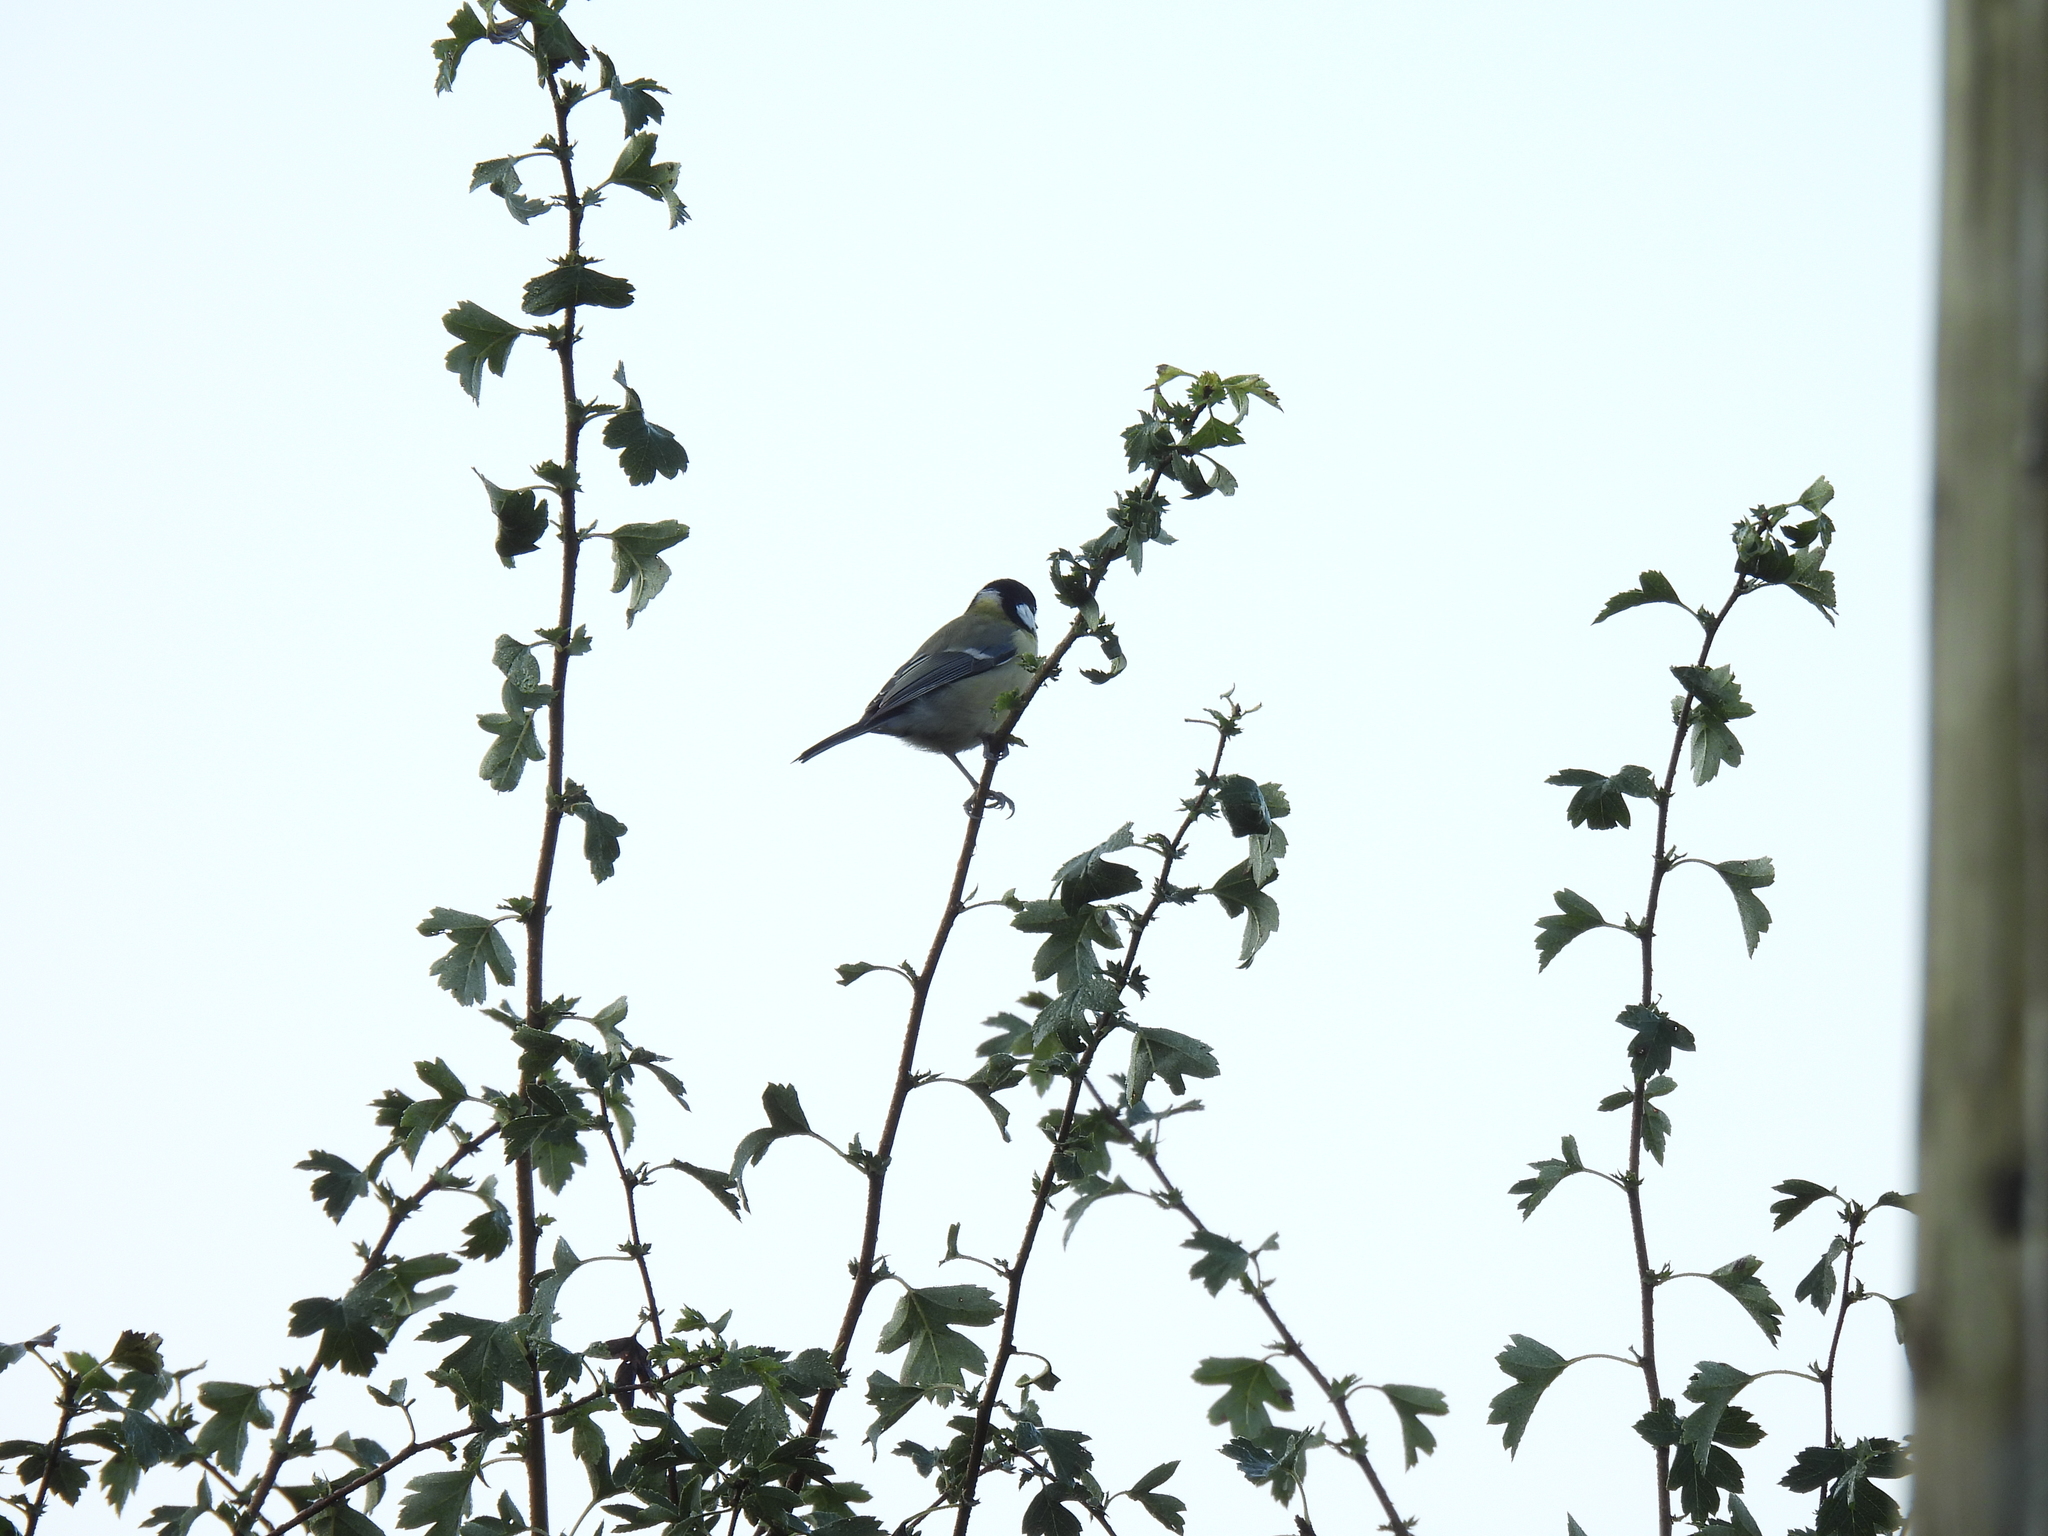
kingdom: Animalia
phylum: Chordata
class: Aves
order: Passeriformes
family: Paridae
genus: Parus
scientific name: Parus major
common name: Great tit
